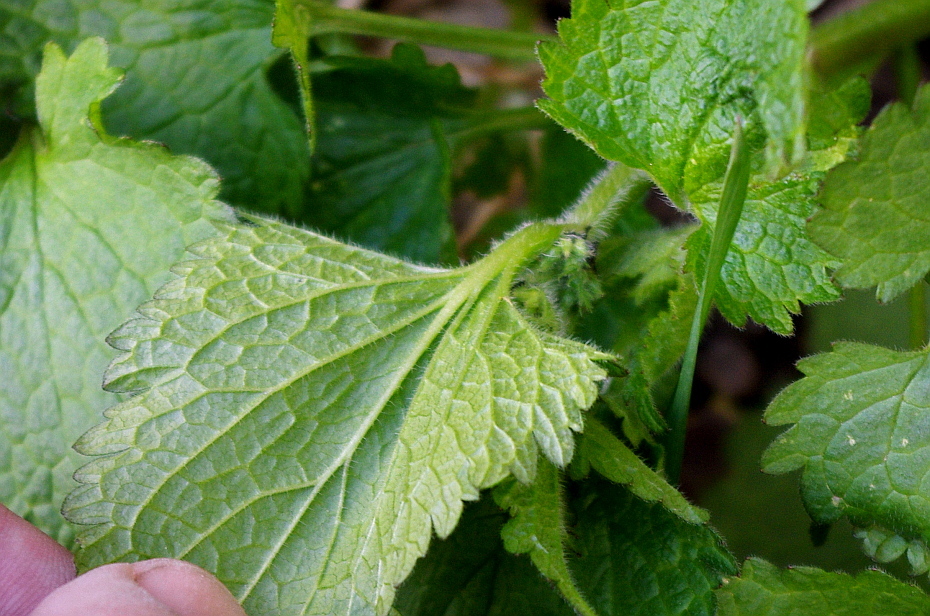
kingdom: Plantae
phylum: Tracheophyta
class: Magnoliopsida
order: Lamiales
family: Lamiaceae
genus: Lamium
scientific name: Lamium album
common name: White dead-nettle
